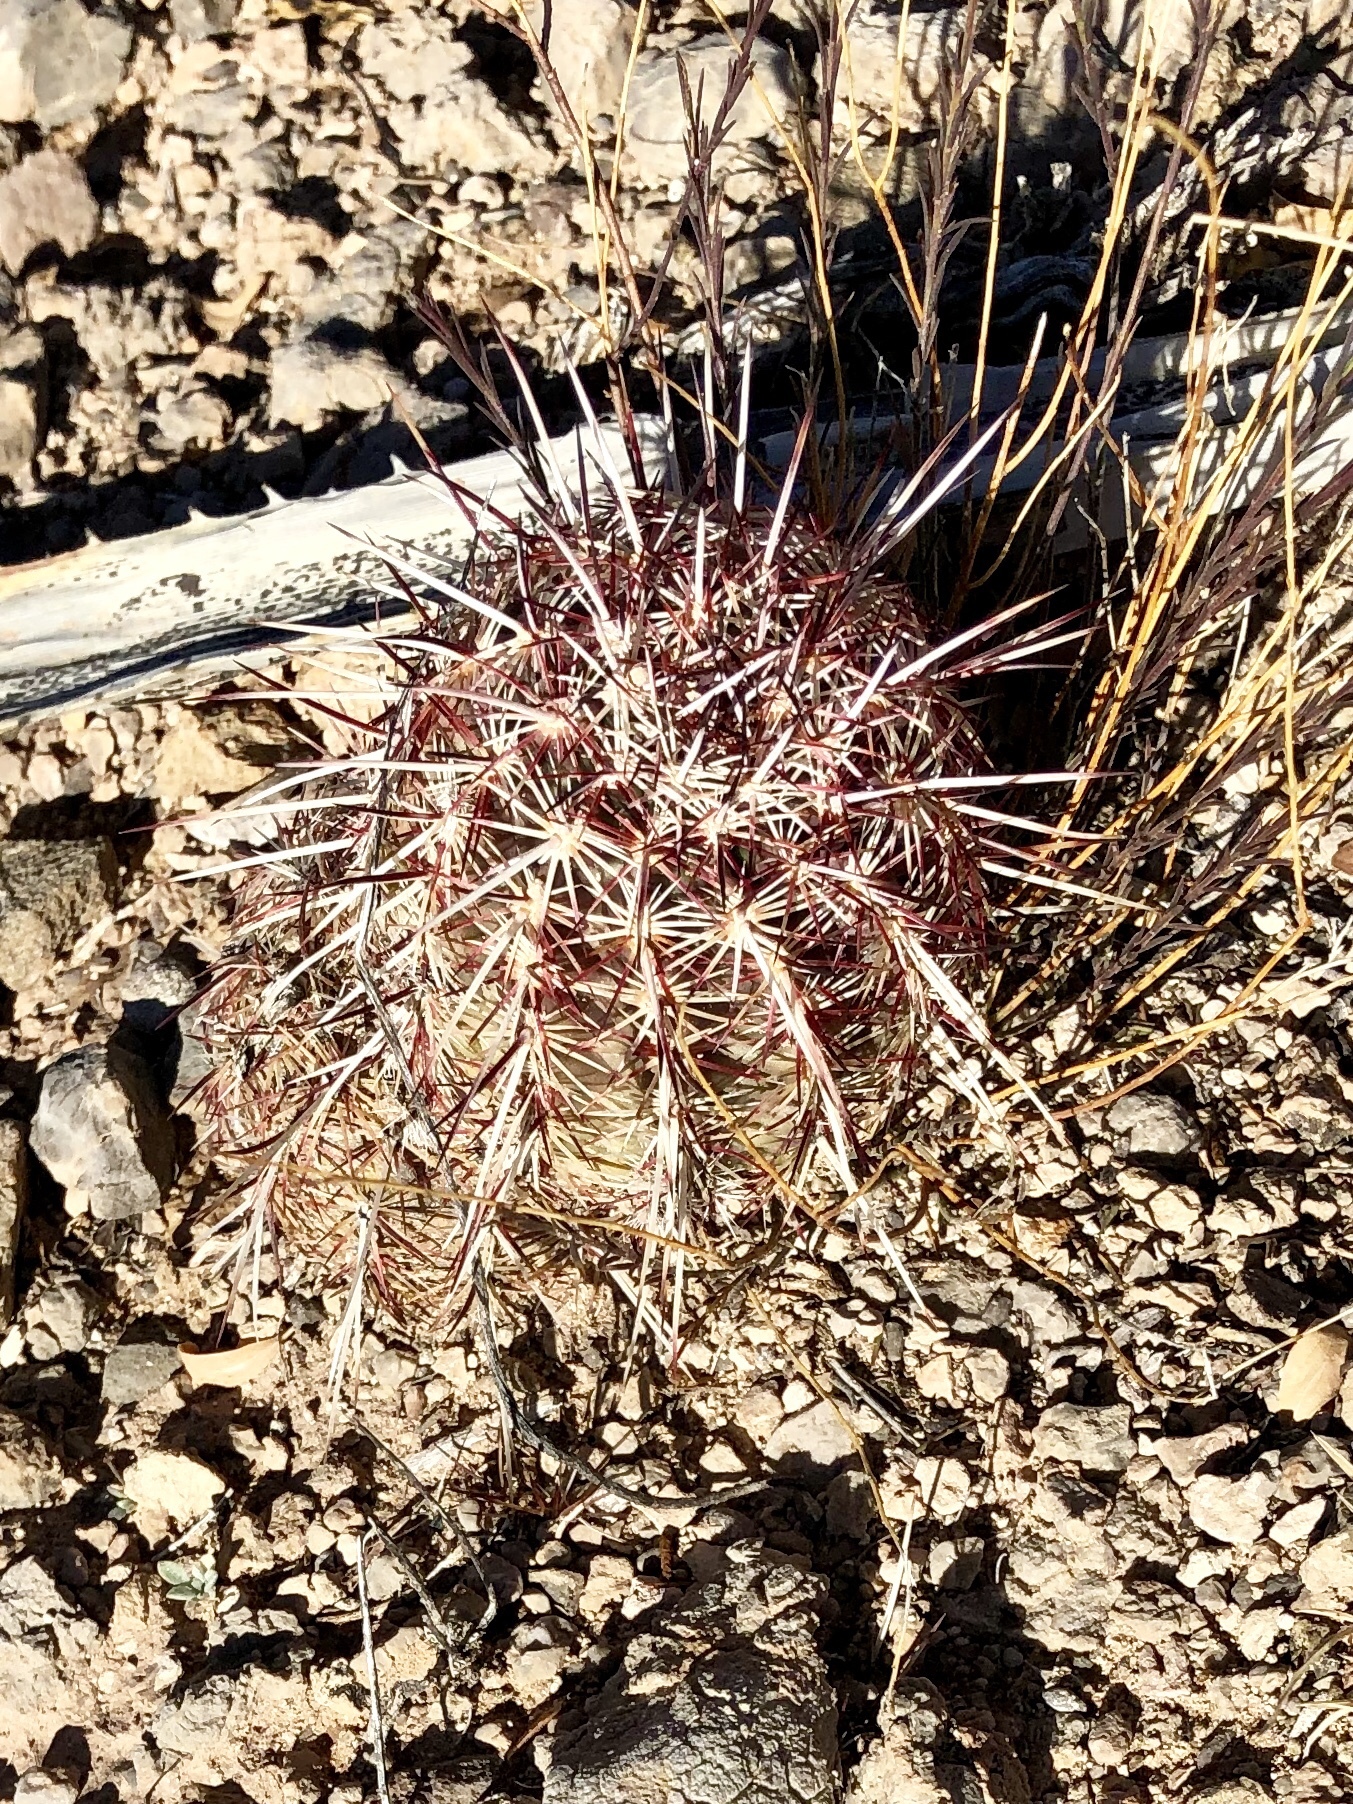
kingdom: Plantae
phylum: Tracheophyta
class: Magnoliopsida
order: Caryophyllales
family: Cactaceae
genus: Echinocereus
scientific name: Echinocereus viridiflorus
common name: Nylon hedgehog cactus
